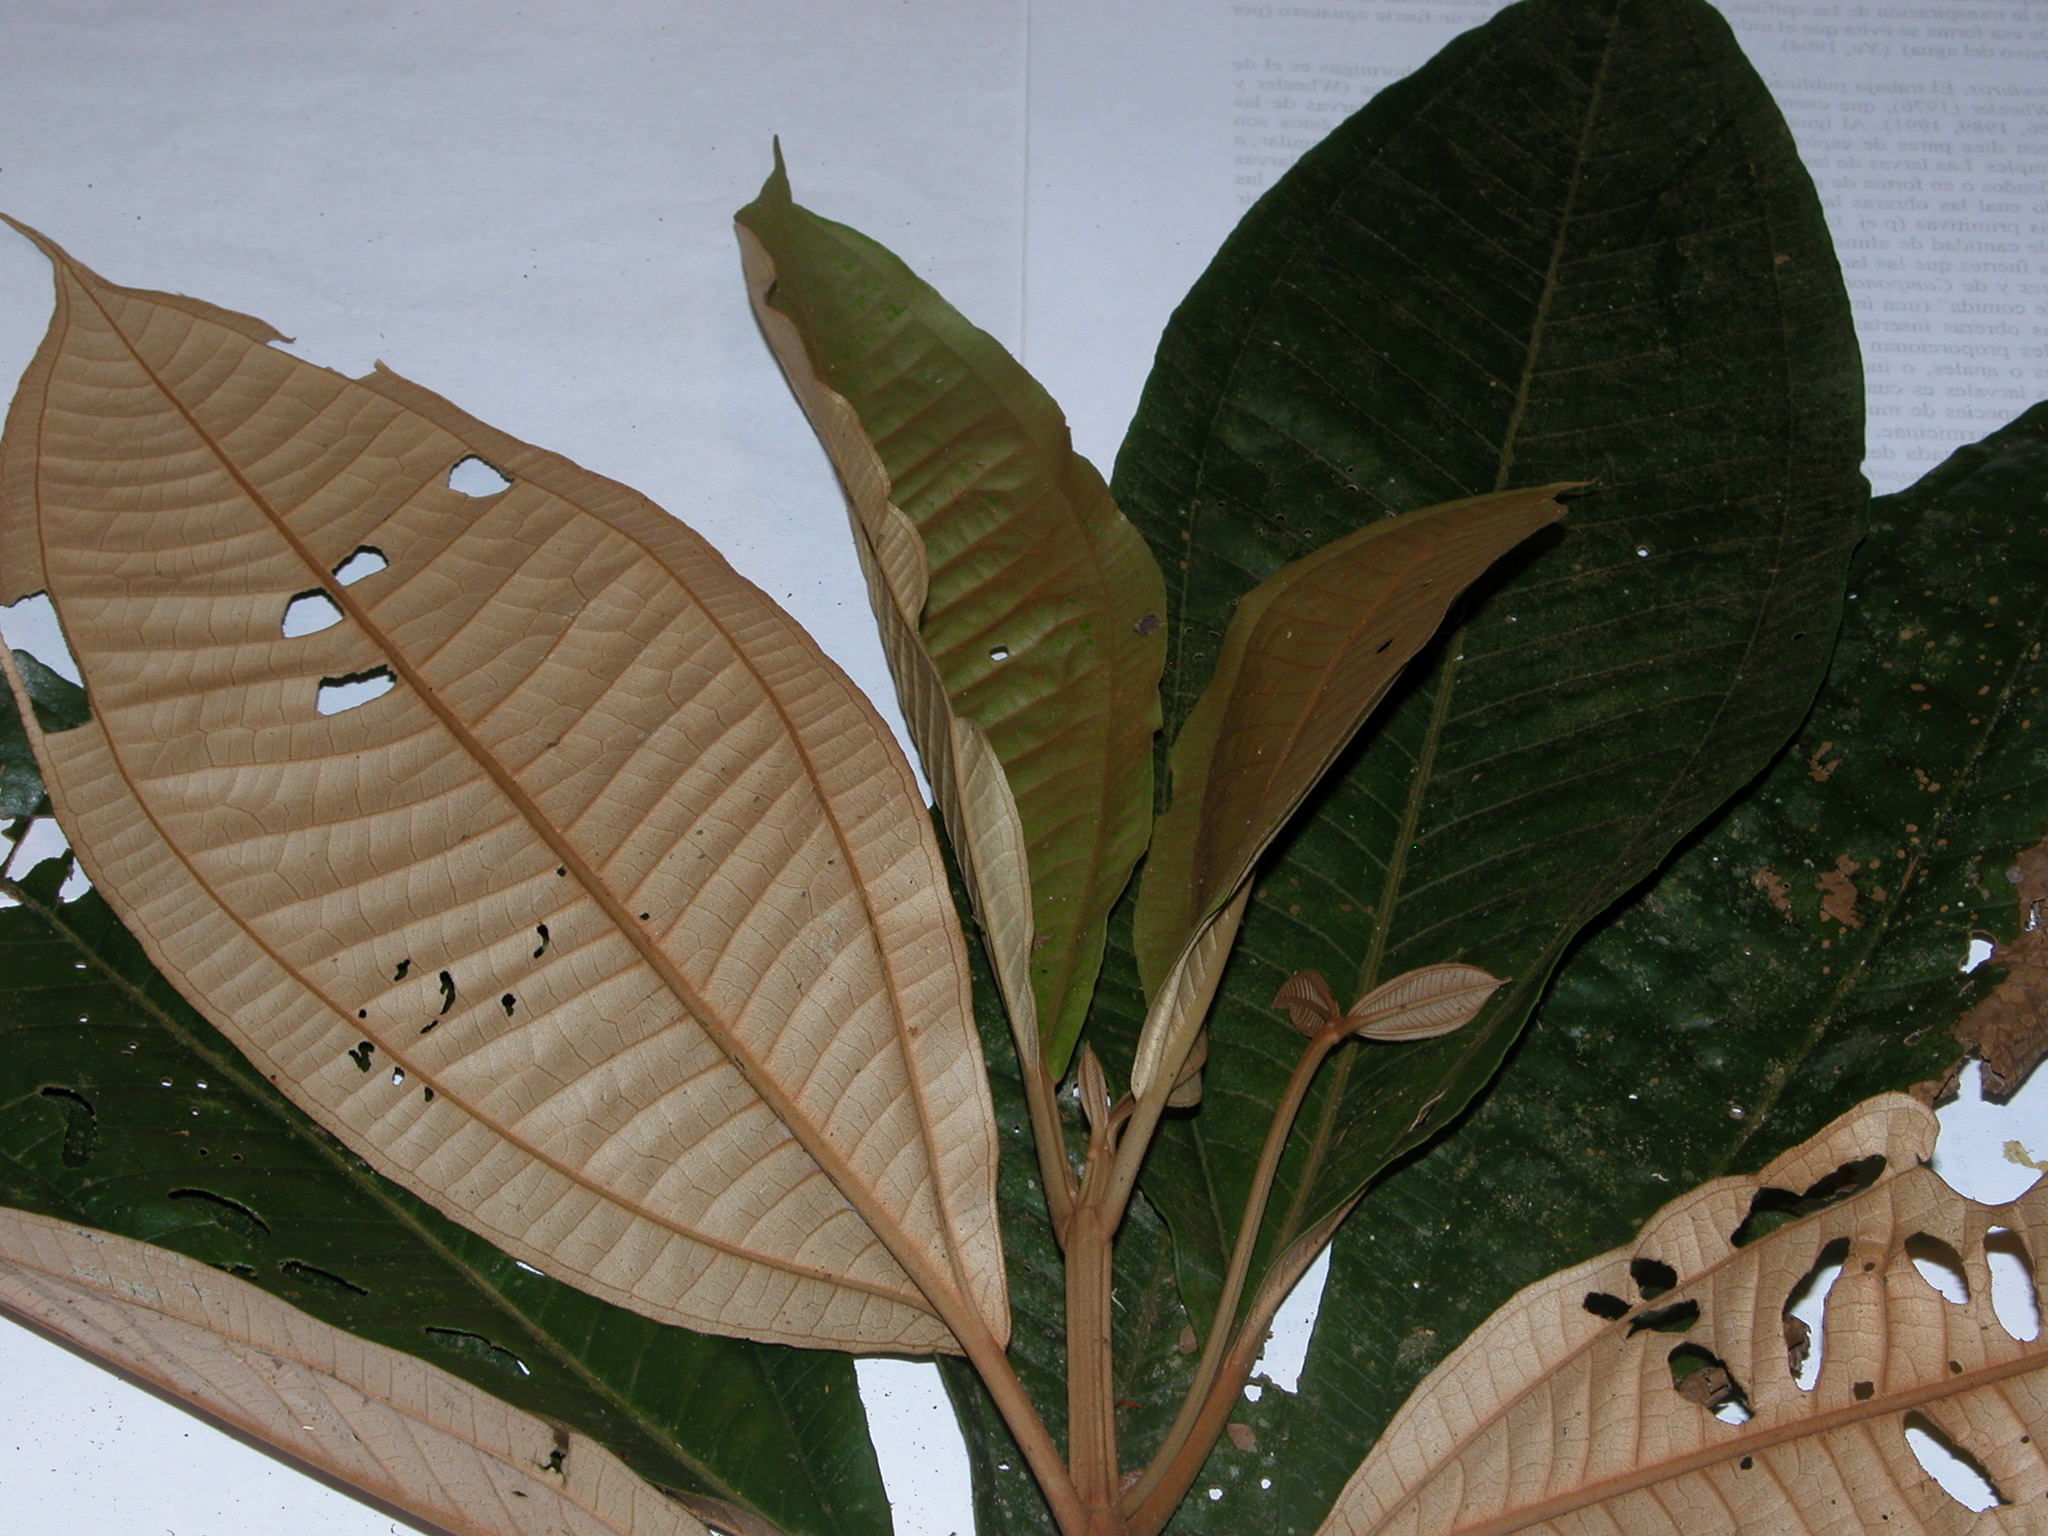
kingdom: Plantae
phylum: Tracheophyta
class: Magnoliopsida
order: Myrtales
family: Melastomataceae
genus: Miconia
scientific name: Miconia punctata
